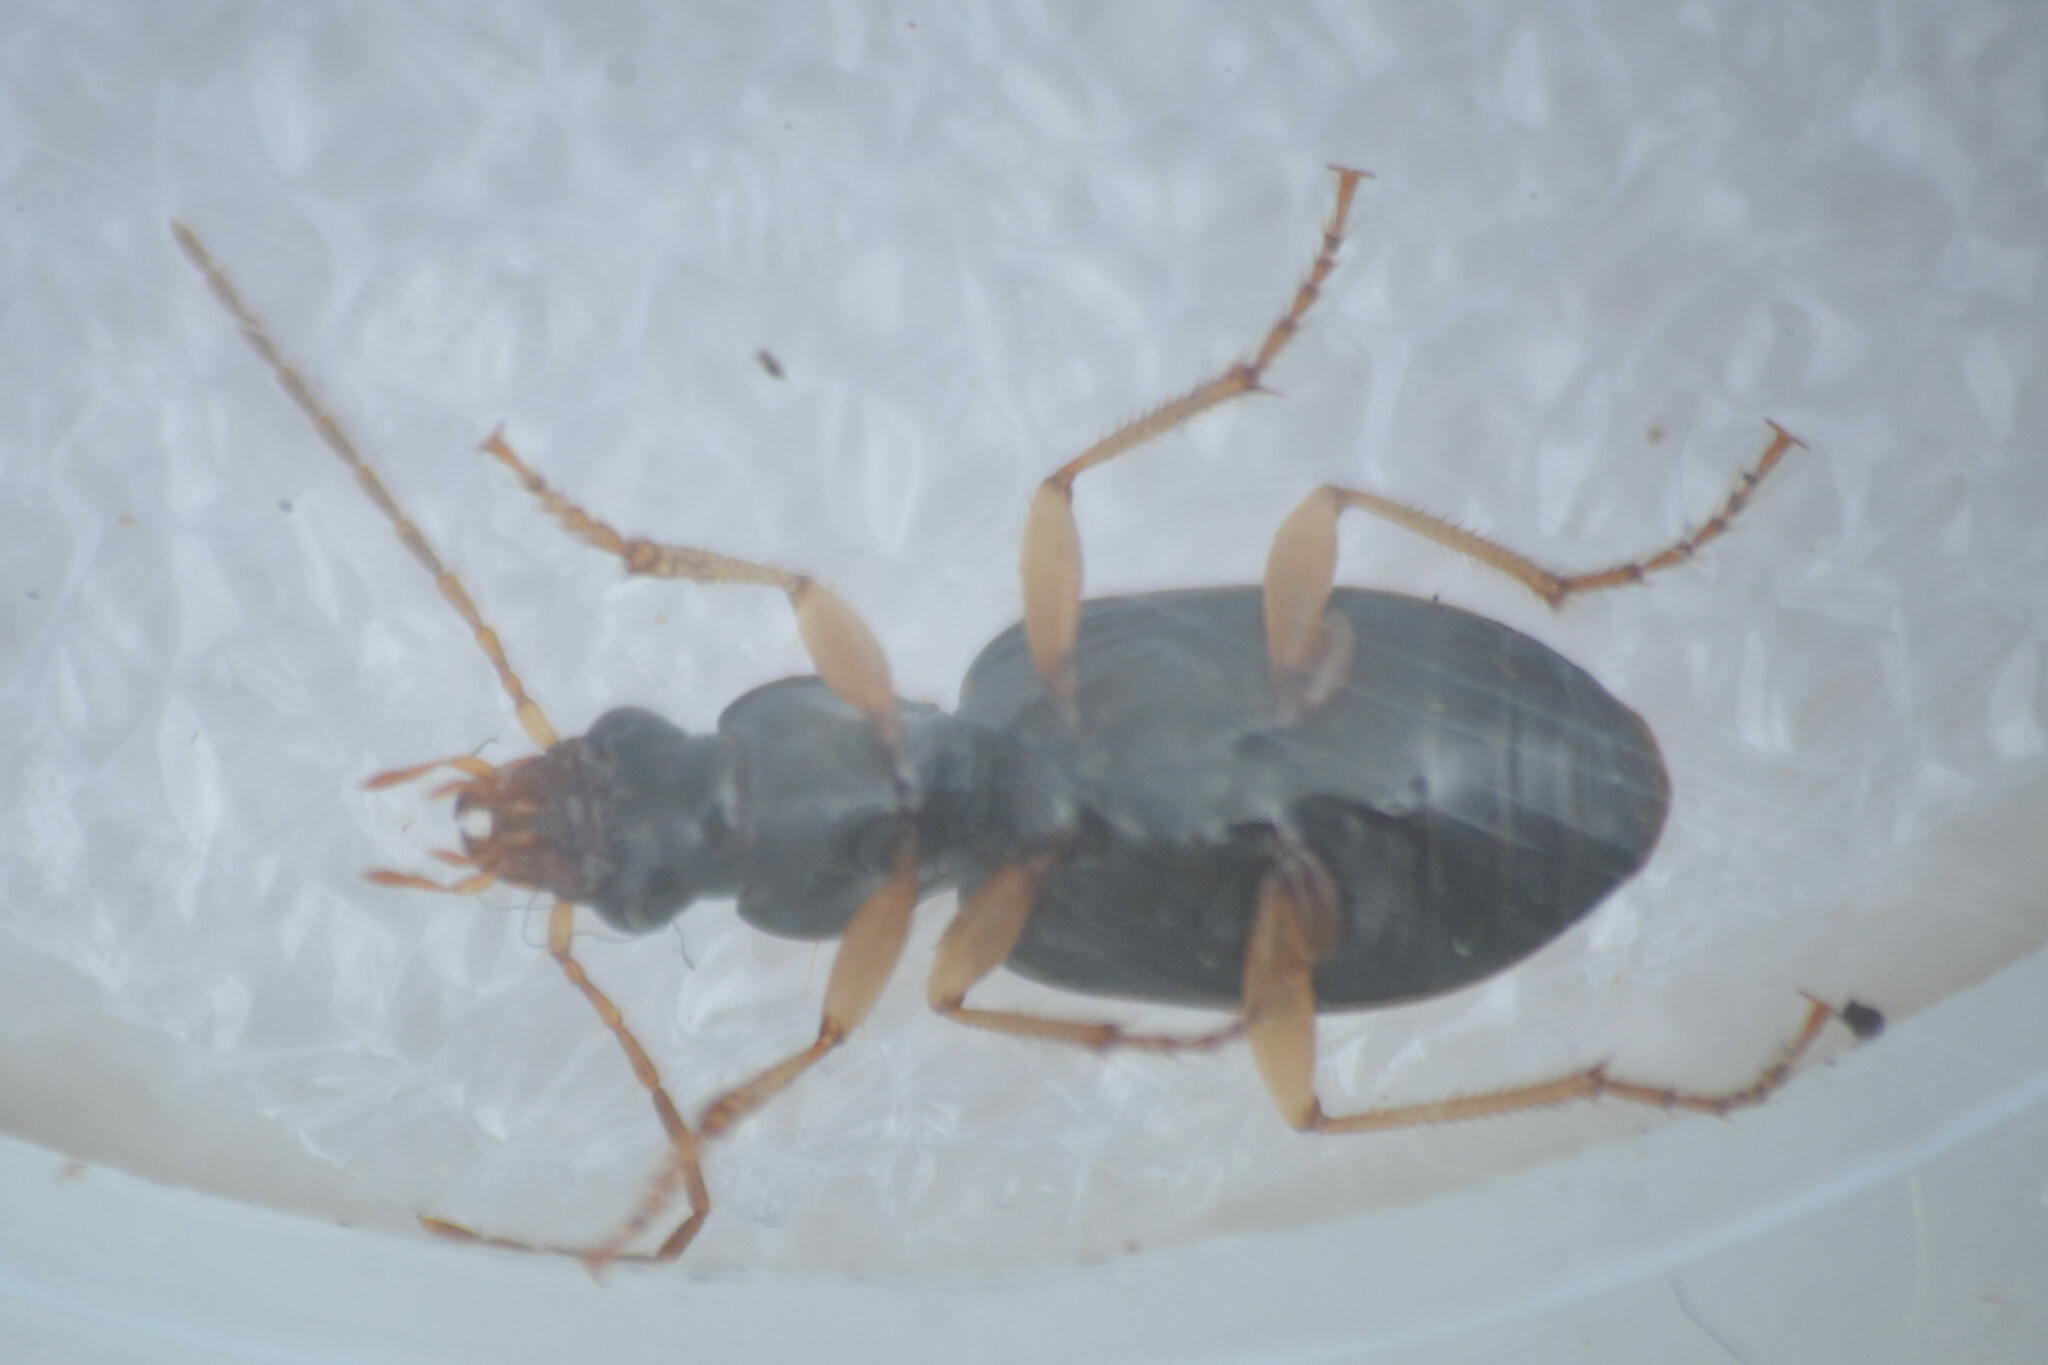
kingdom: Animalia
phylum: Arthropoda
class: Insecta
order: Coleoptera
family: Carabidae
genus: Paranchus
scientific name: Paranchus albipes
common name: White-legged harp ground beetle
